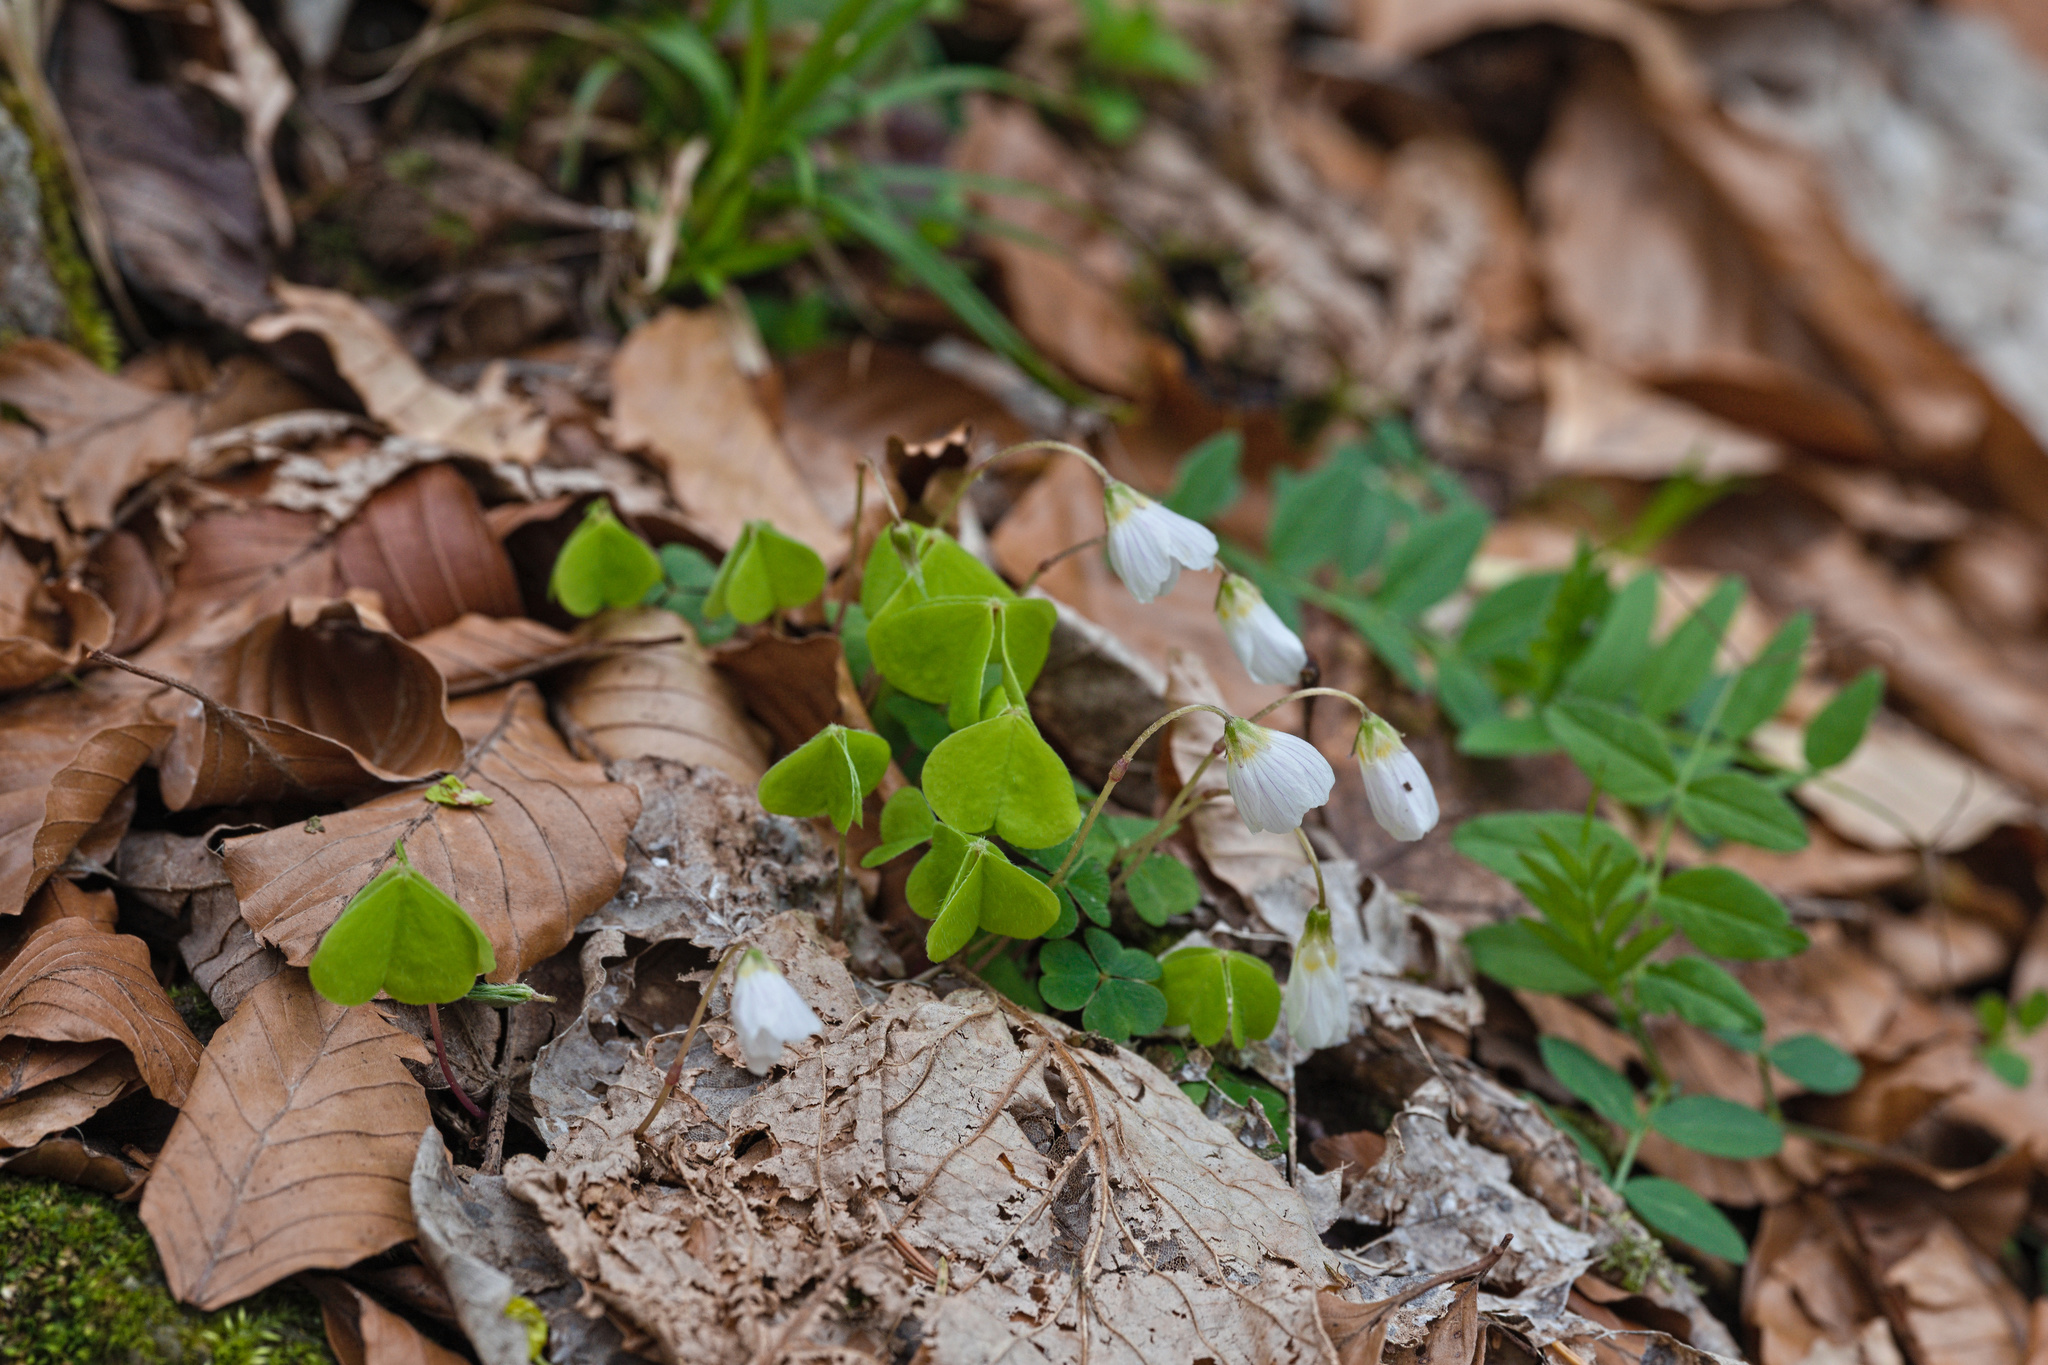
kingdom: Plantae
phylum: Tracheophyta
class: Magnoliopsida
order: Oxalidales
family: Oxalidaceae
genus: Oxalis
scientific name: Oxalis acetosella
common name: Wood-sorrel
